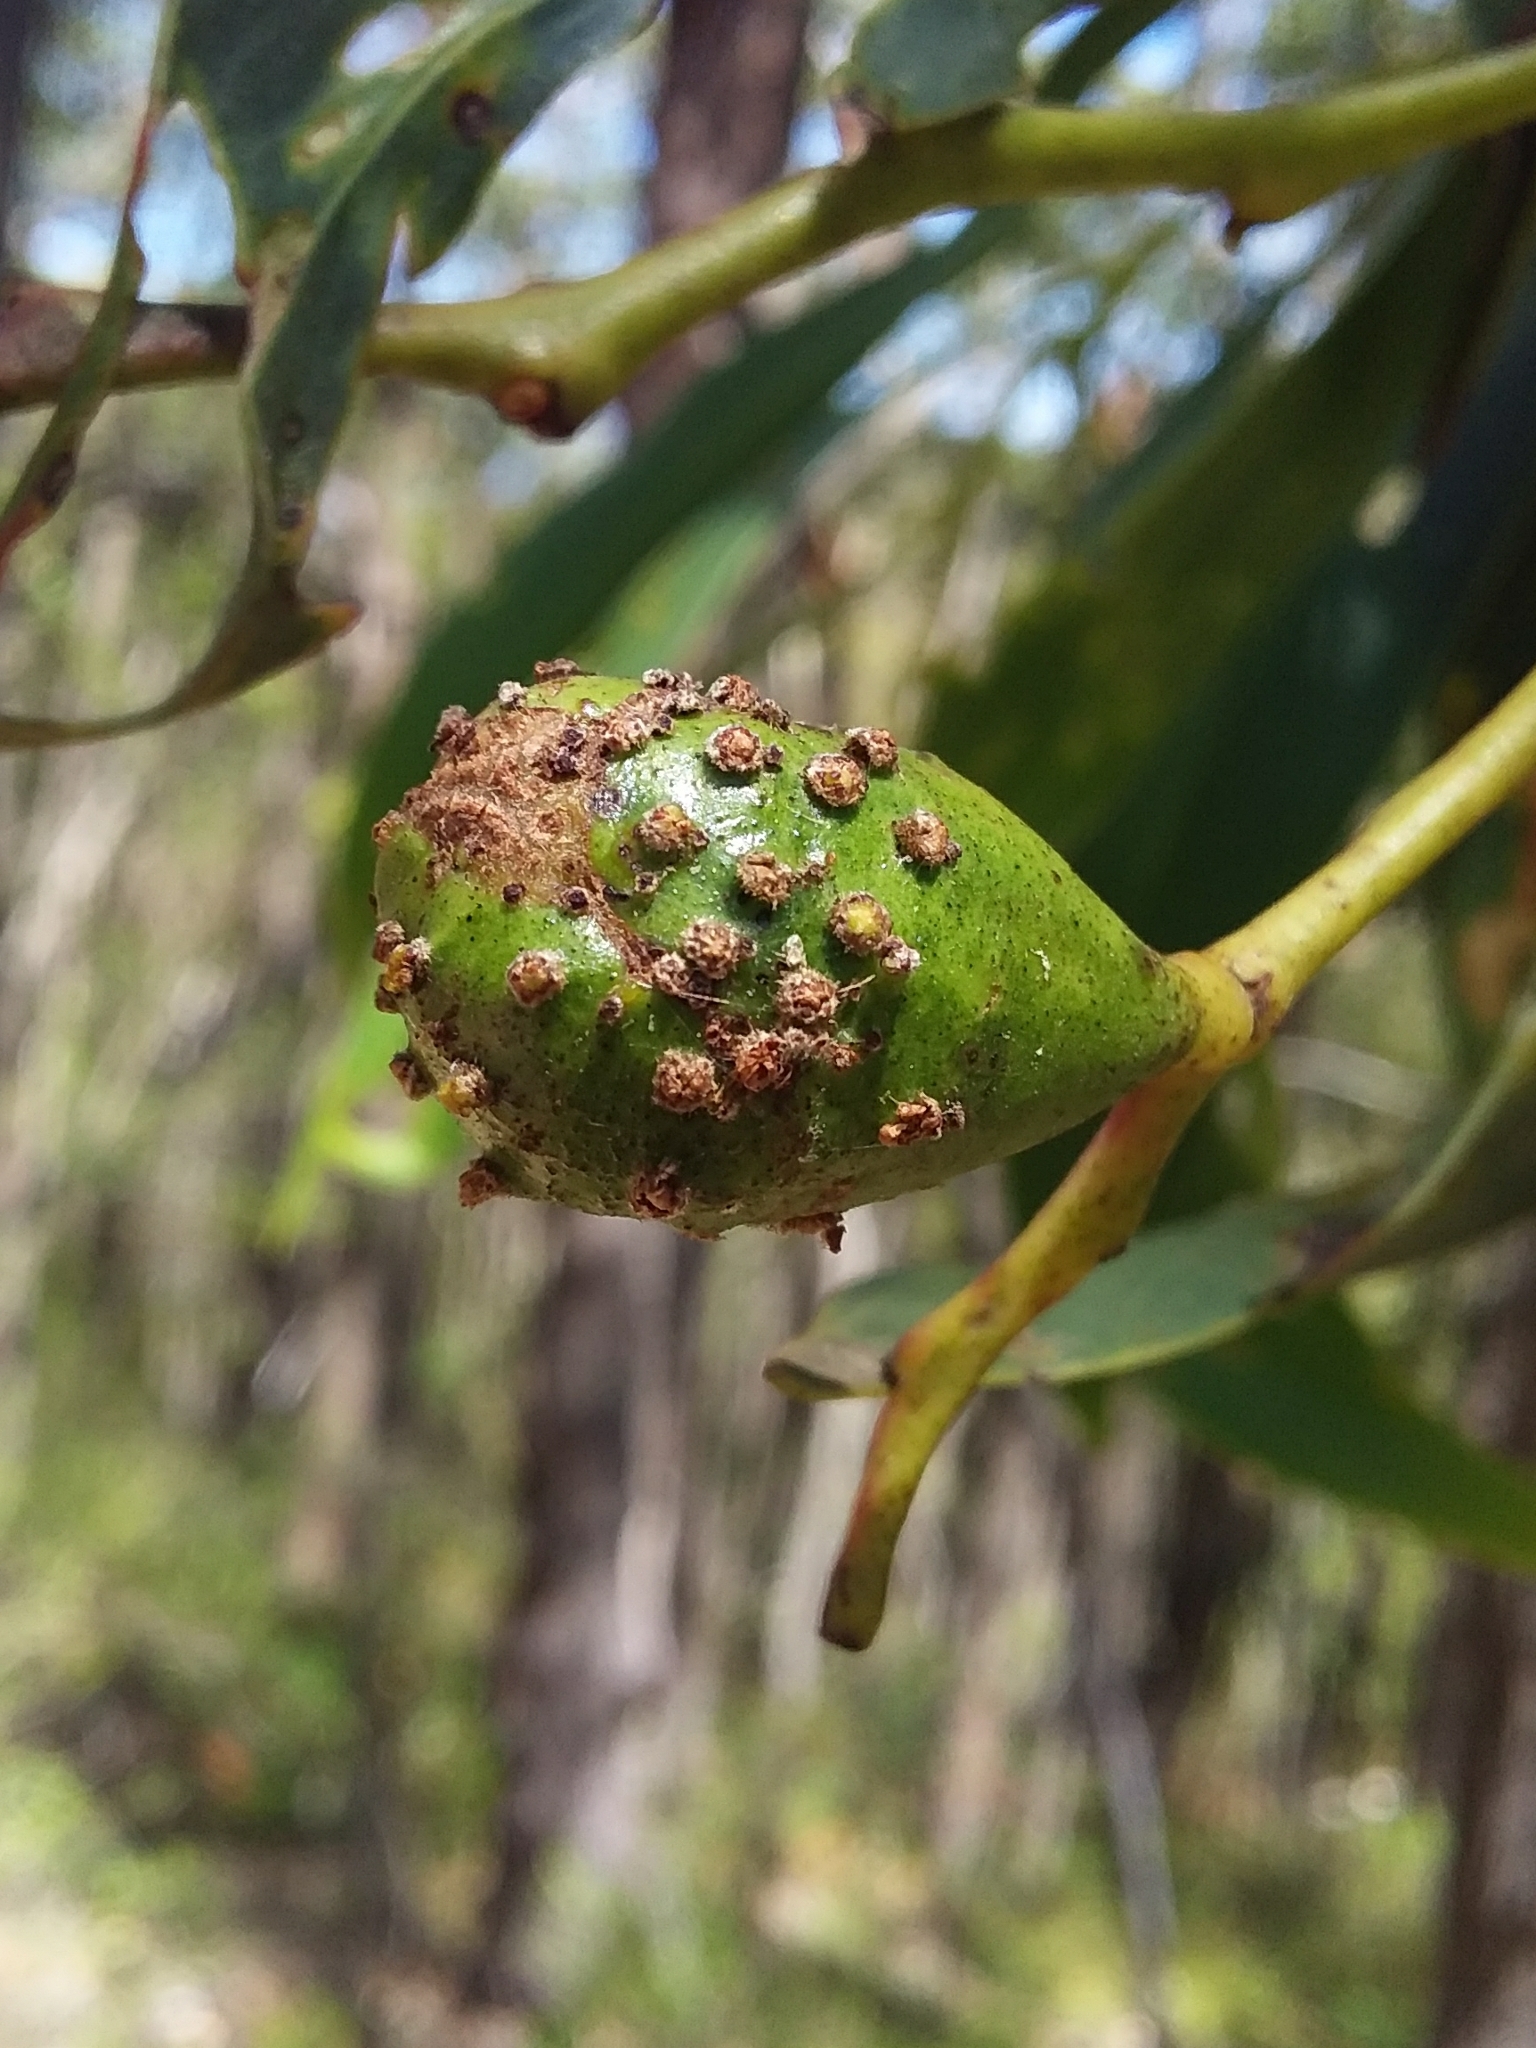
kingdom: Animalia
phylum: Arthropoda
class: Insecta
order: Hymenoptera
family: Pteromalidae
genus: Trichilogaster
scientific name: Trichilogaster signiventris
